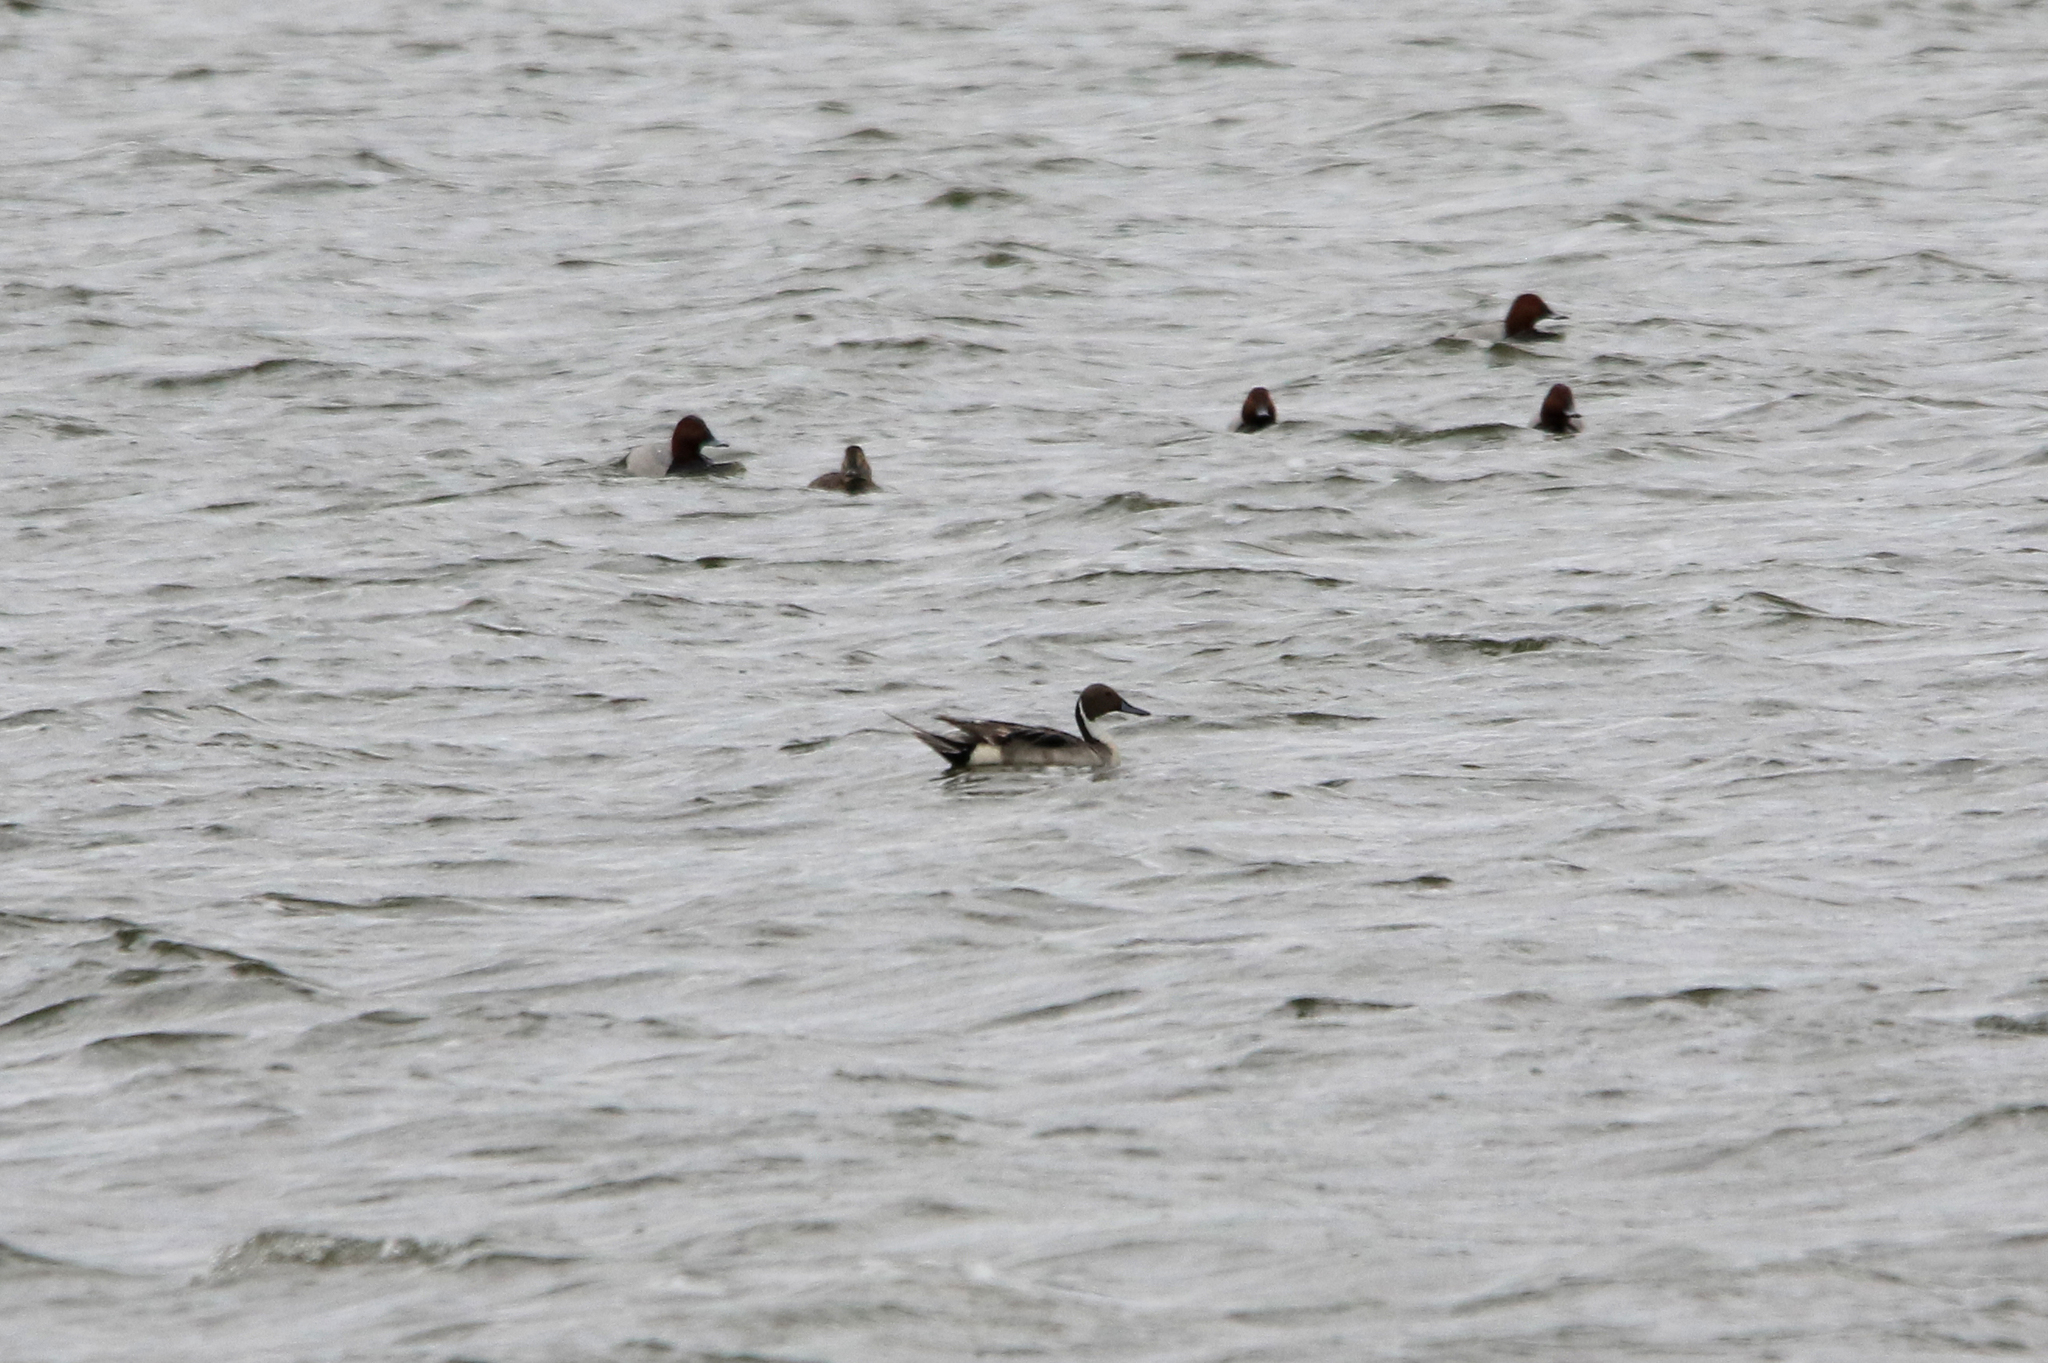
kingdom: Animalia
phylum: Chordata
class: Aves
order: Anseriformes
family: Anatidae
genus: Anas
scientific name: Anas acuta
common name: Northern pintail
